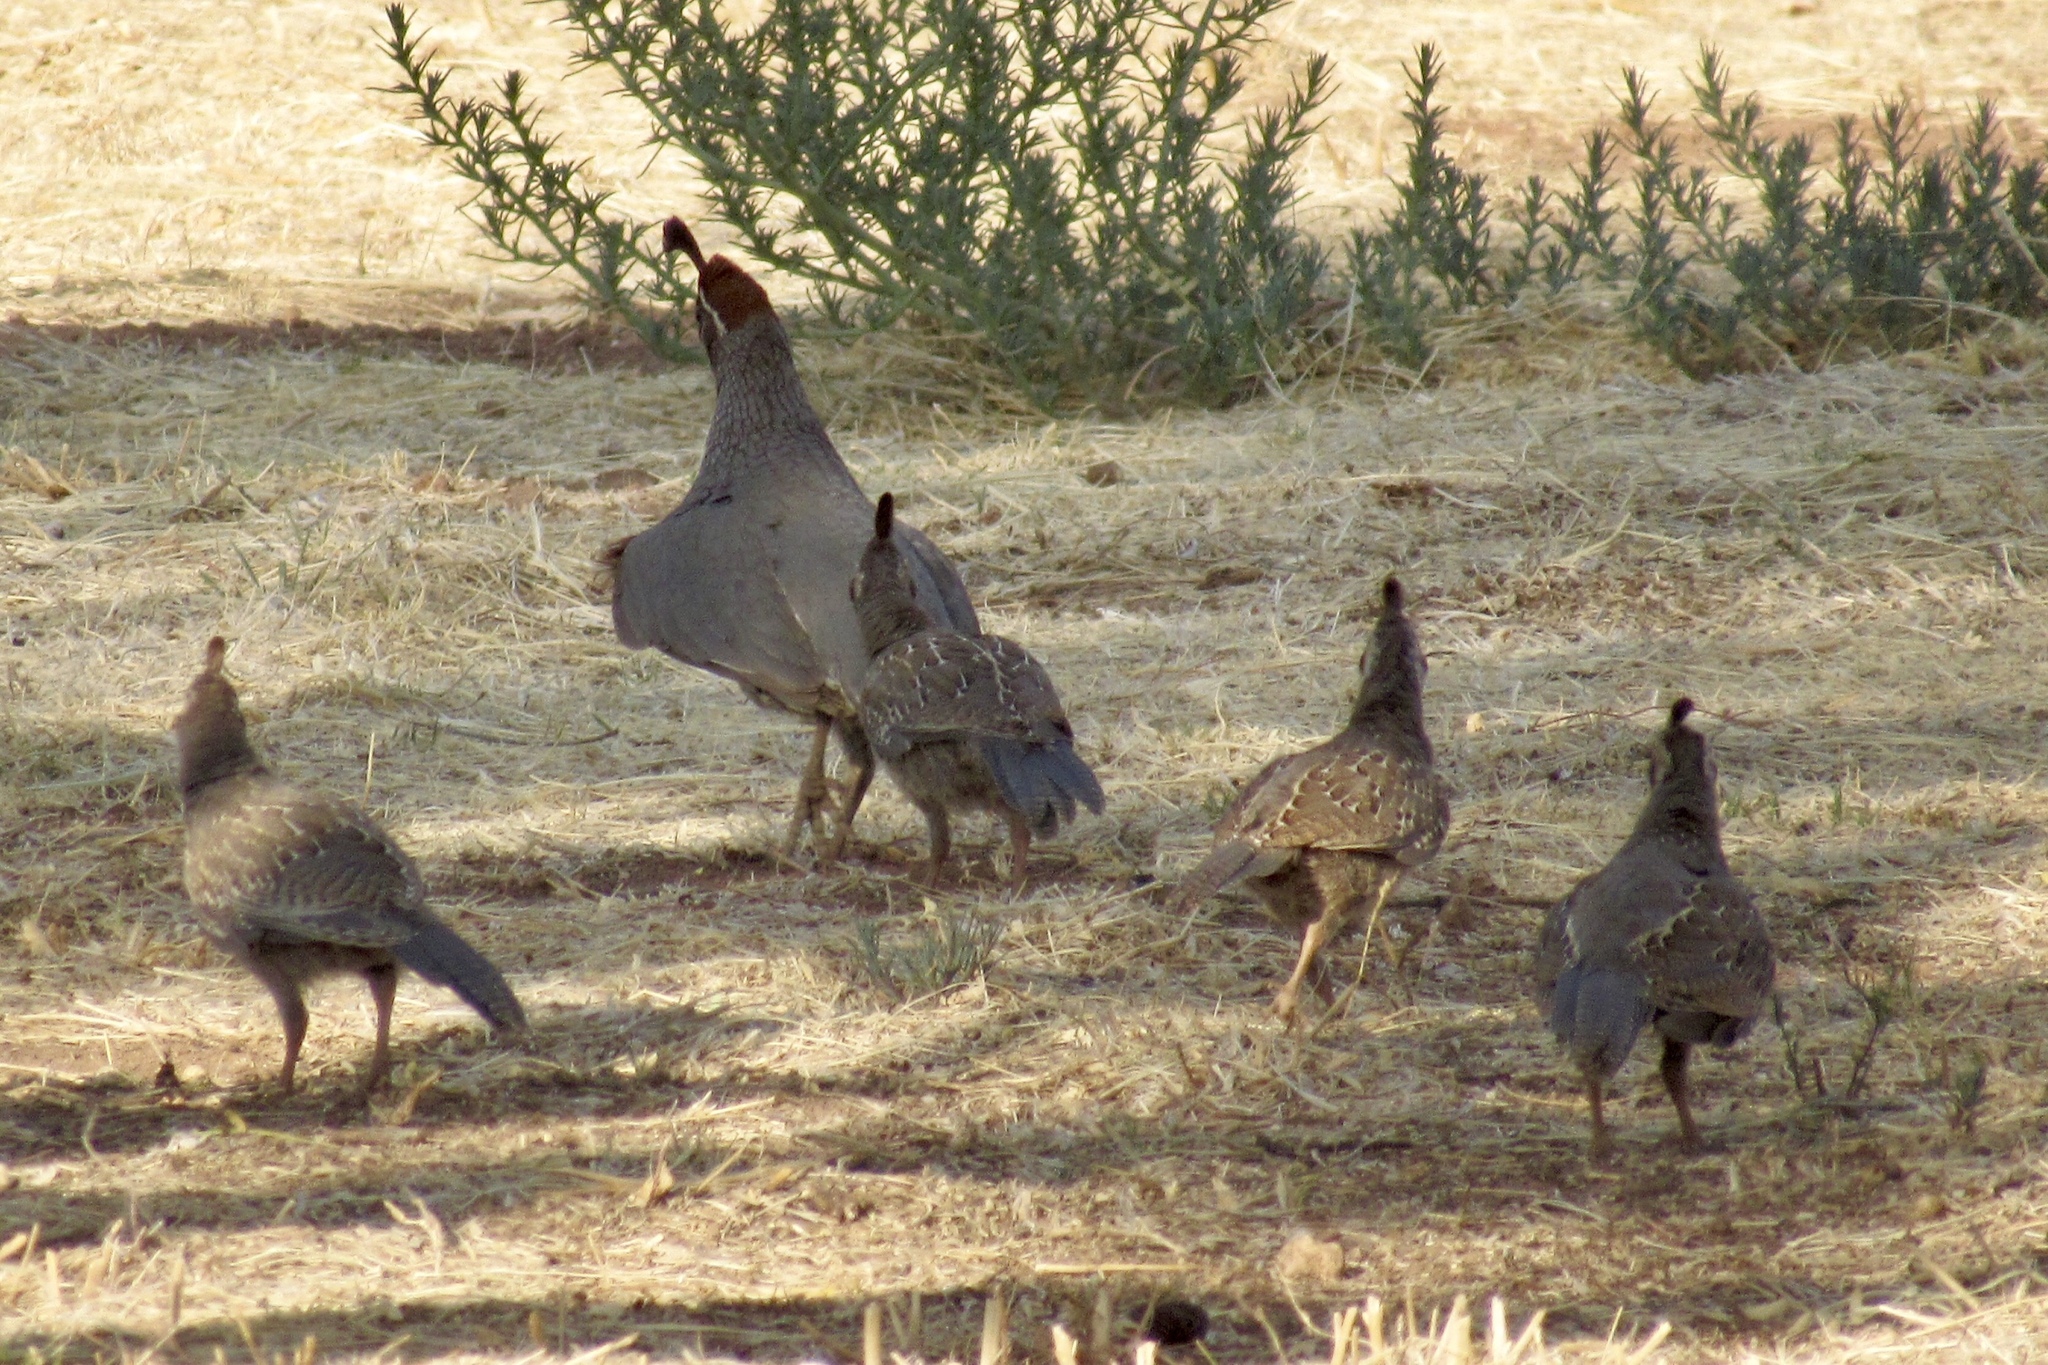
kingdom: Animalia
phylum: Chordata
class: Aves
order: Galliformes
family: Odontophoridae
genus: Callipepla
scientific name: Callipepla gambelii
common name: Gambel's quail
